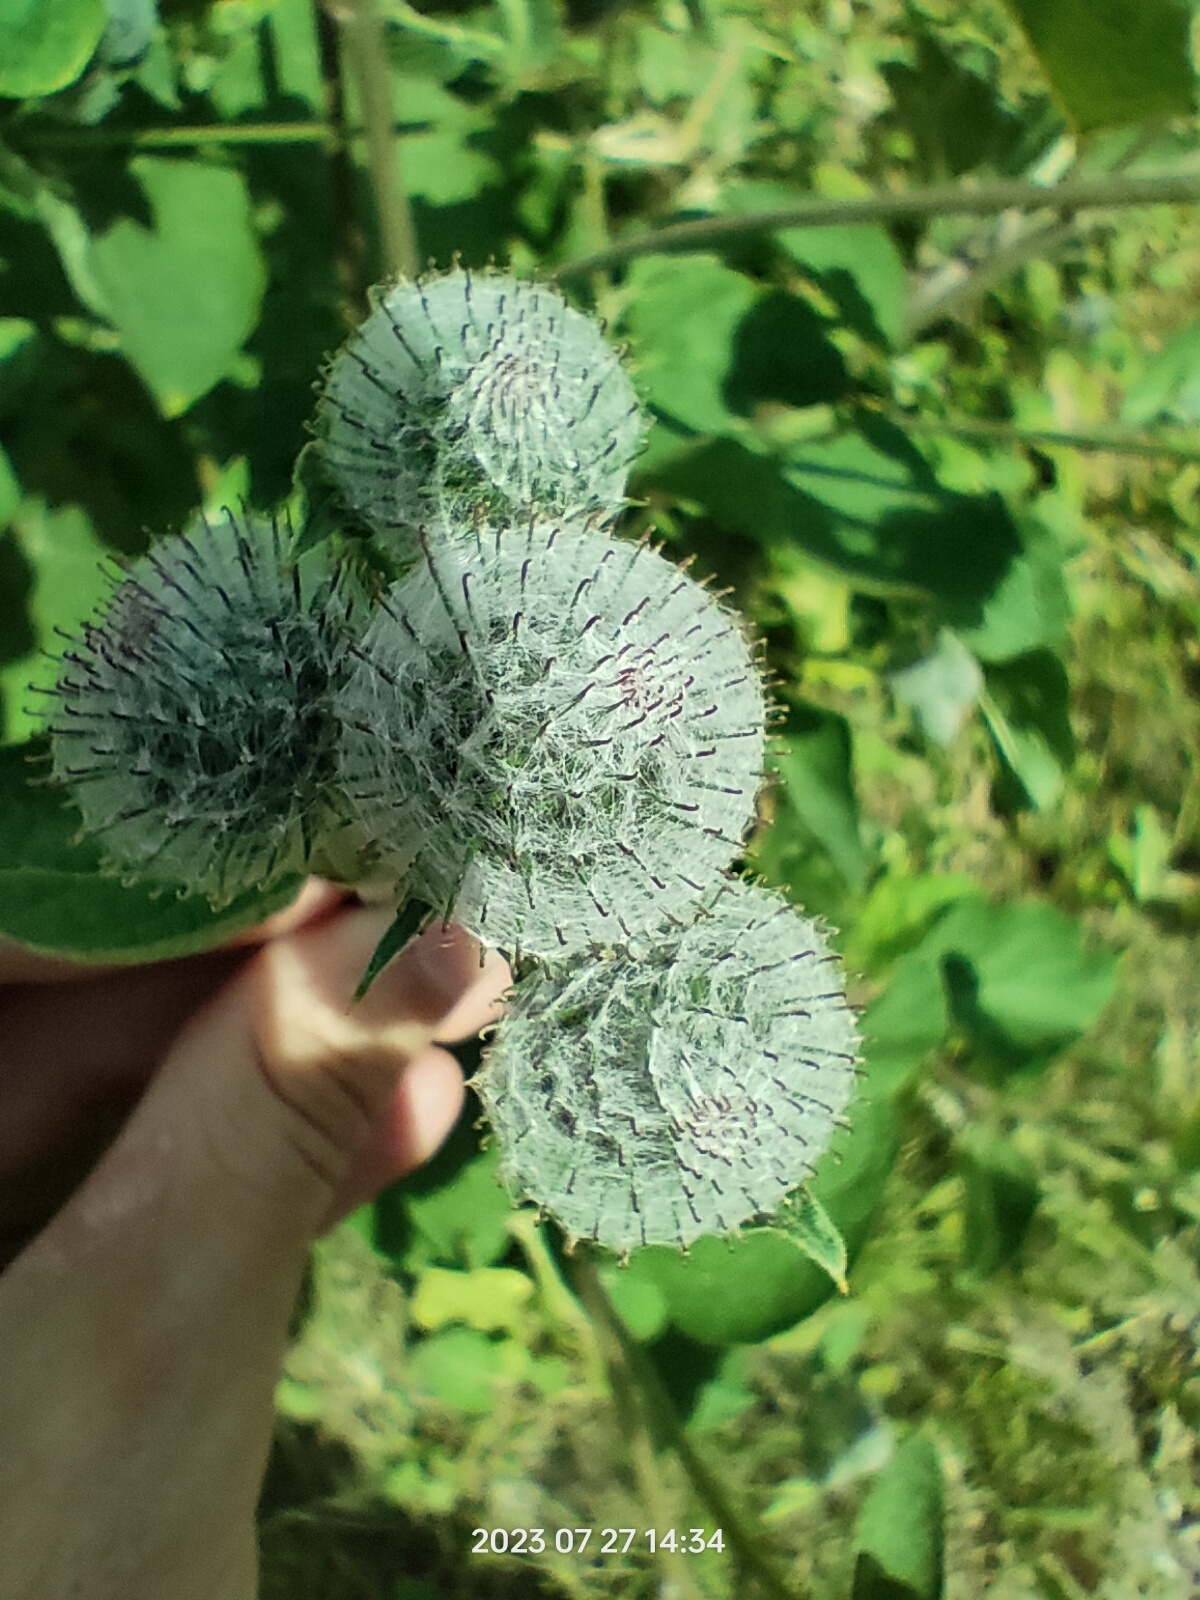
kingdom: Plantae
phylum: Tracheophyta
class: Magnoliopsida
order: Asterales
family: Asteraceae
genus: Arctium
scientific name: Arctium tomentosum
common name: Woolly burdock
